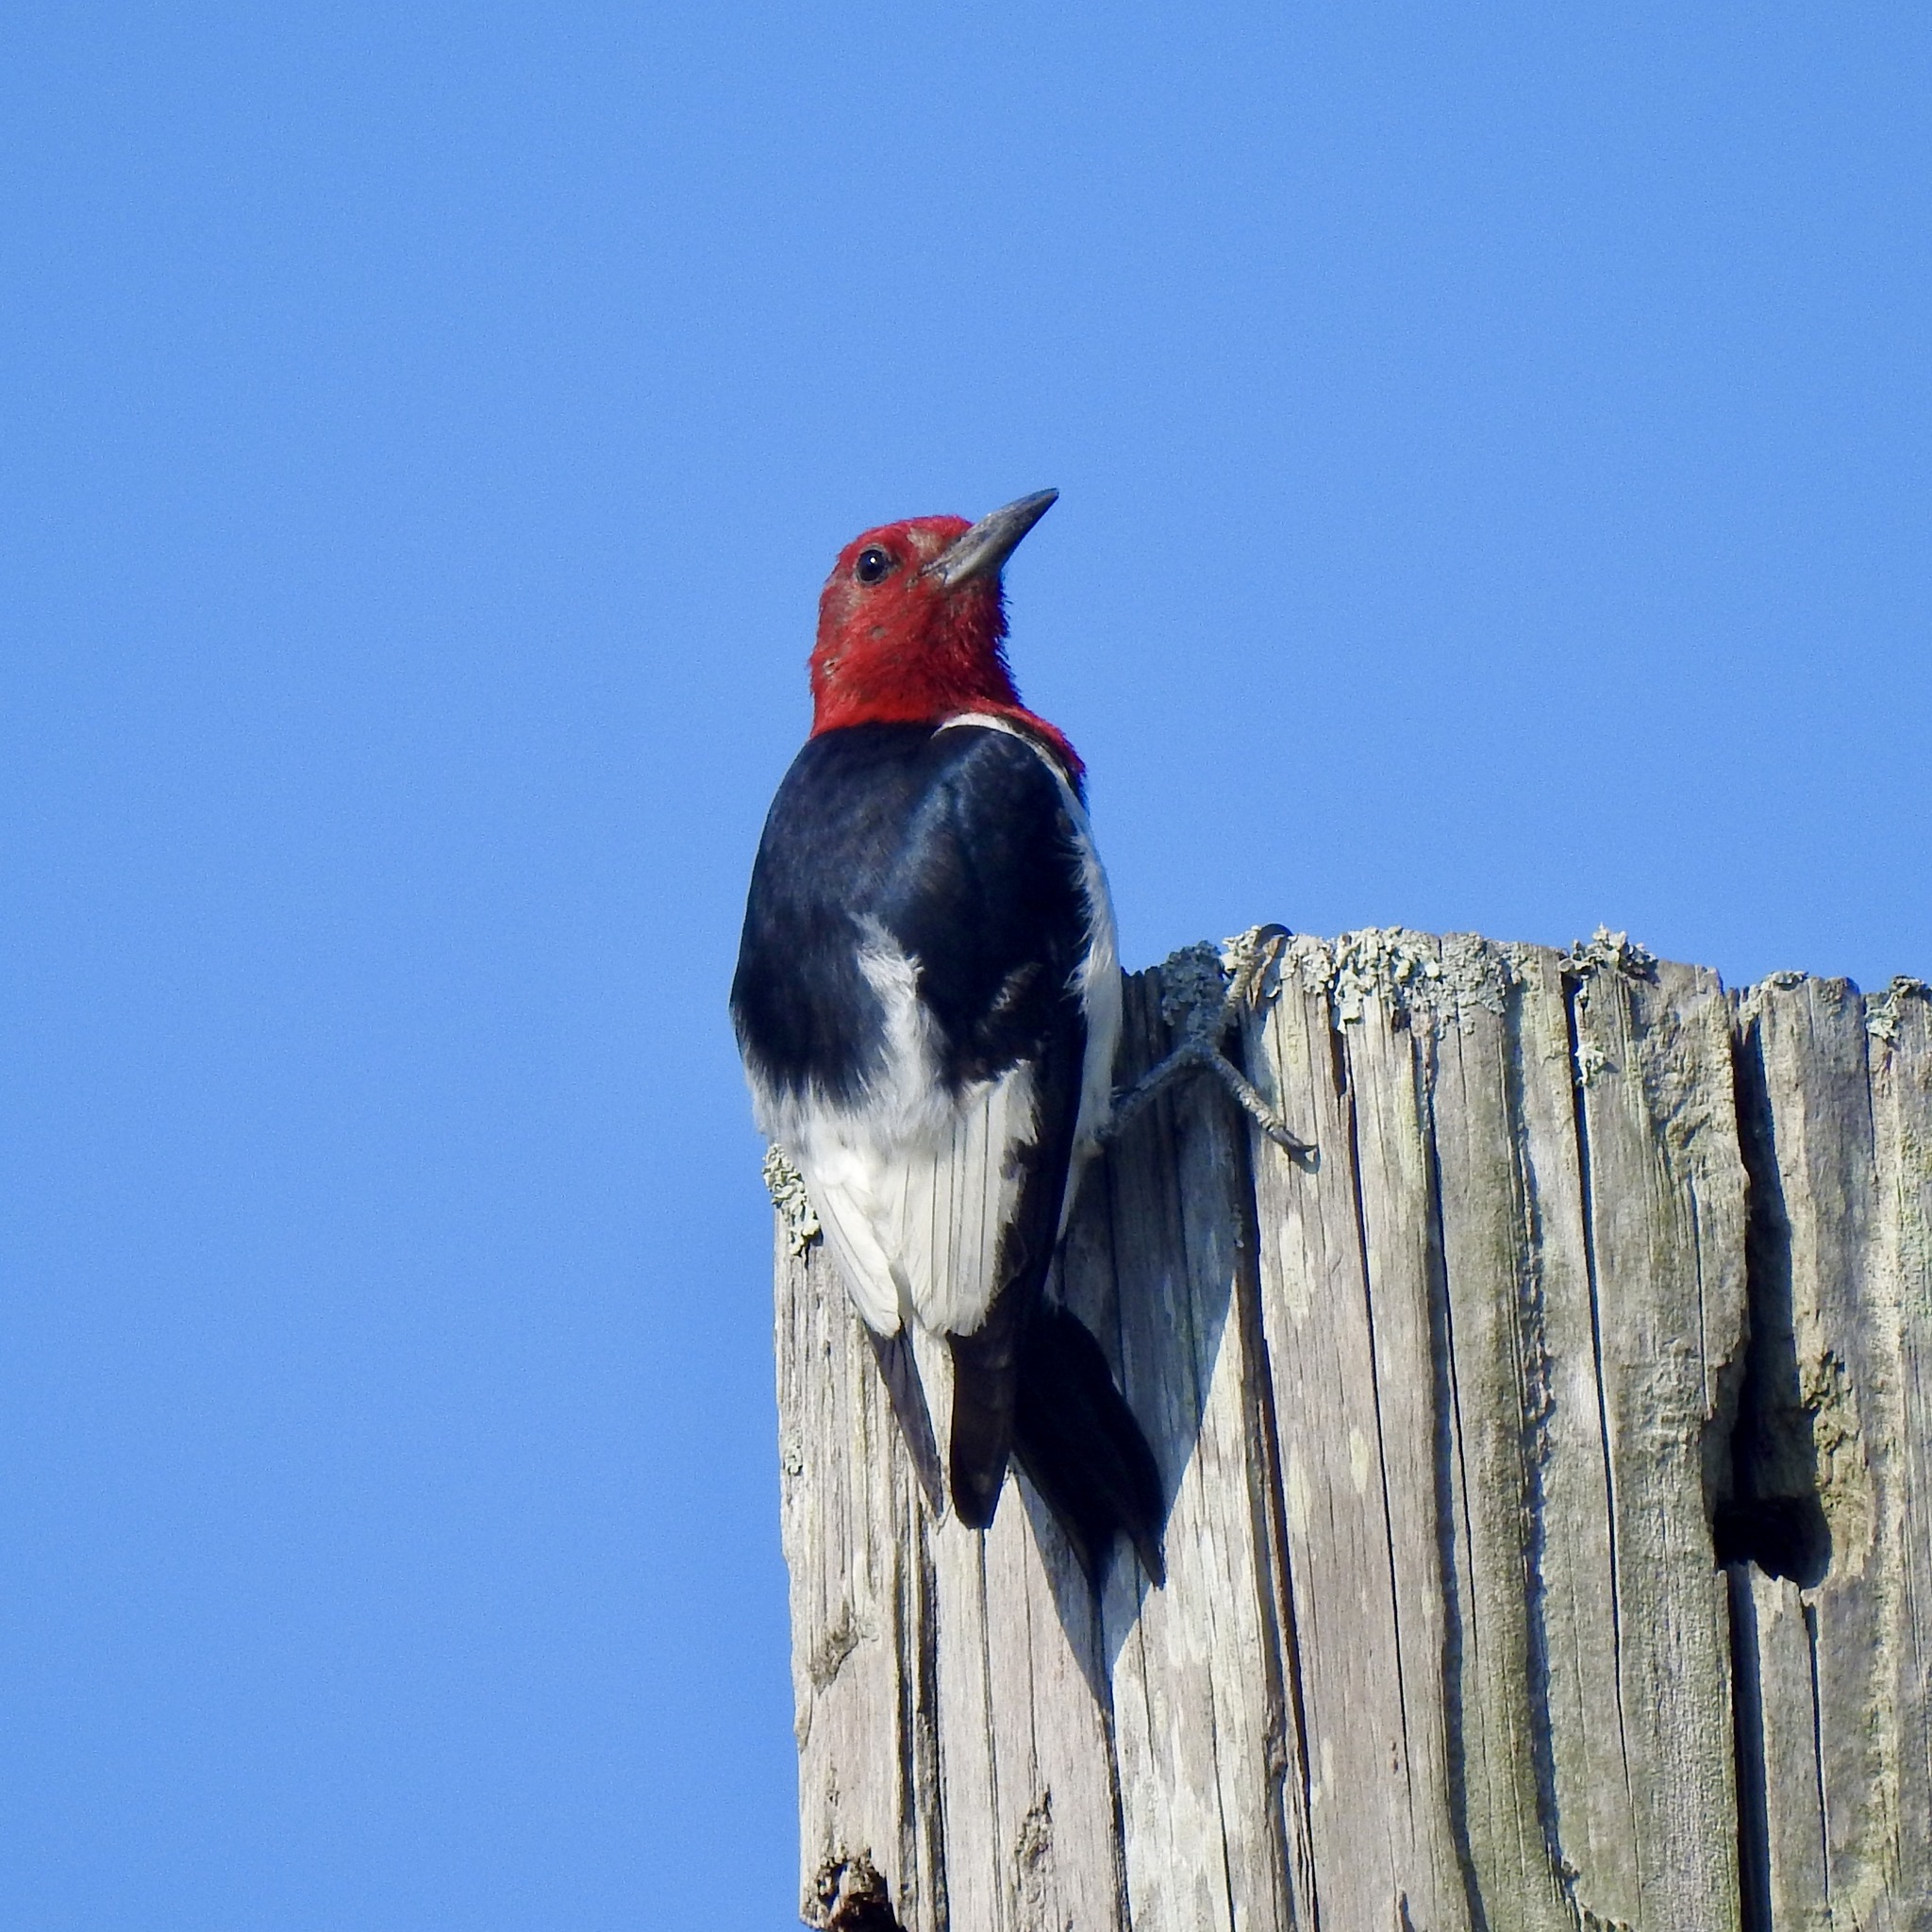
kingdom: Animalia
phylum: Chordata
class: Aves
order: Piciformes
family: Picidae
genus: Melanerpes
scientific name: Melanerpes erythrocephalus
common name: Red-headed woodpecker
